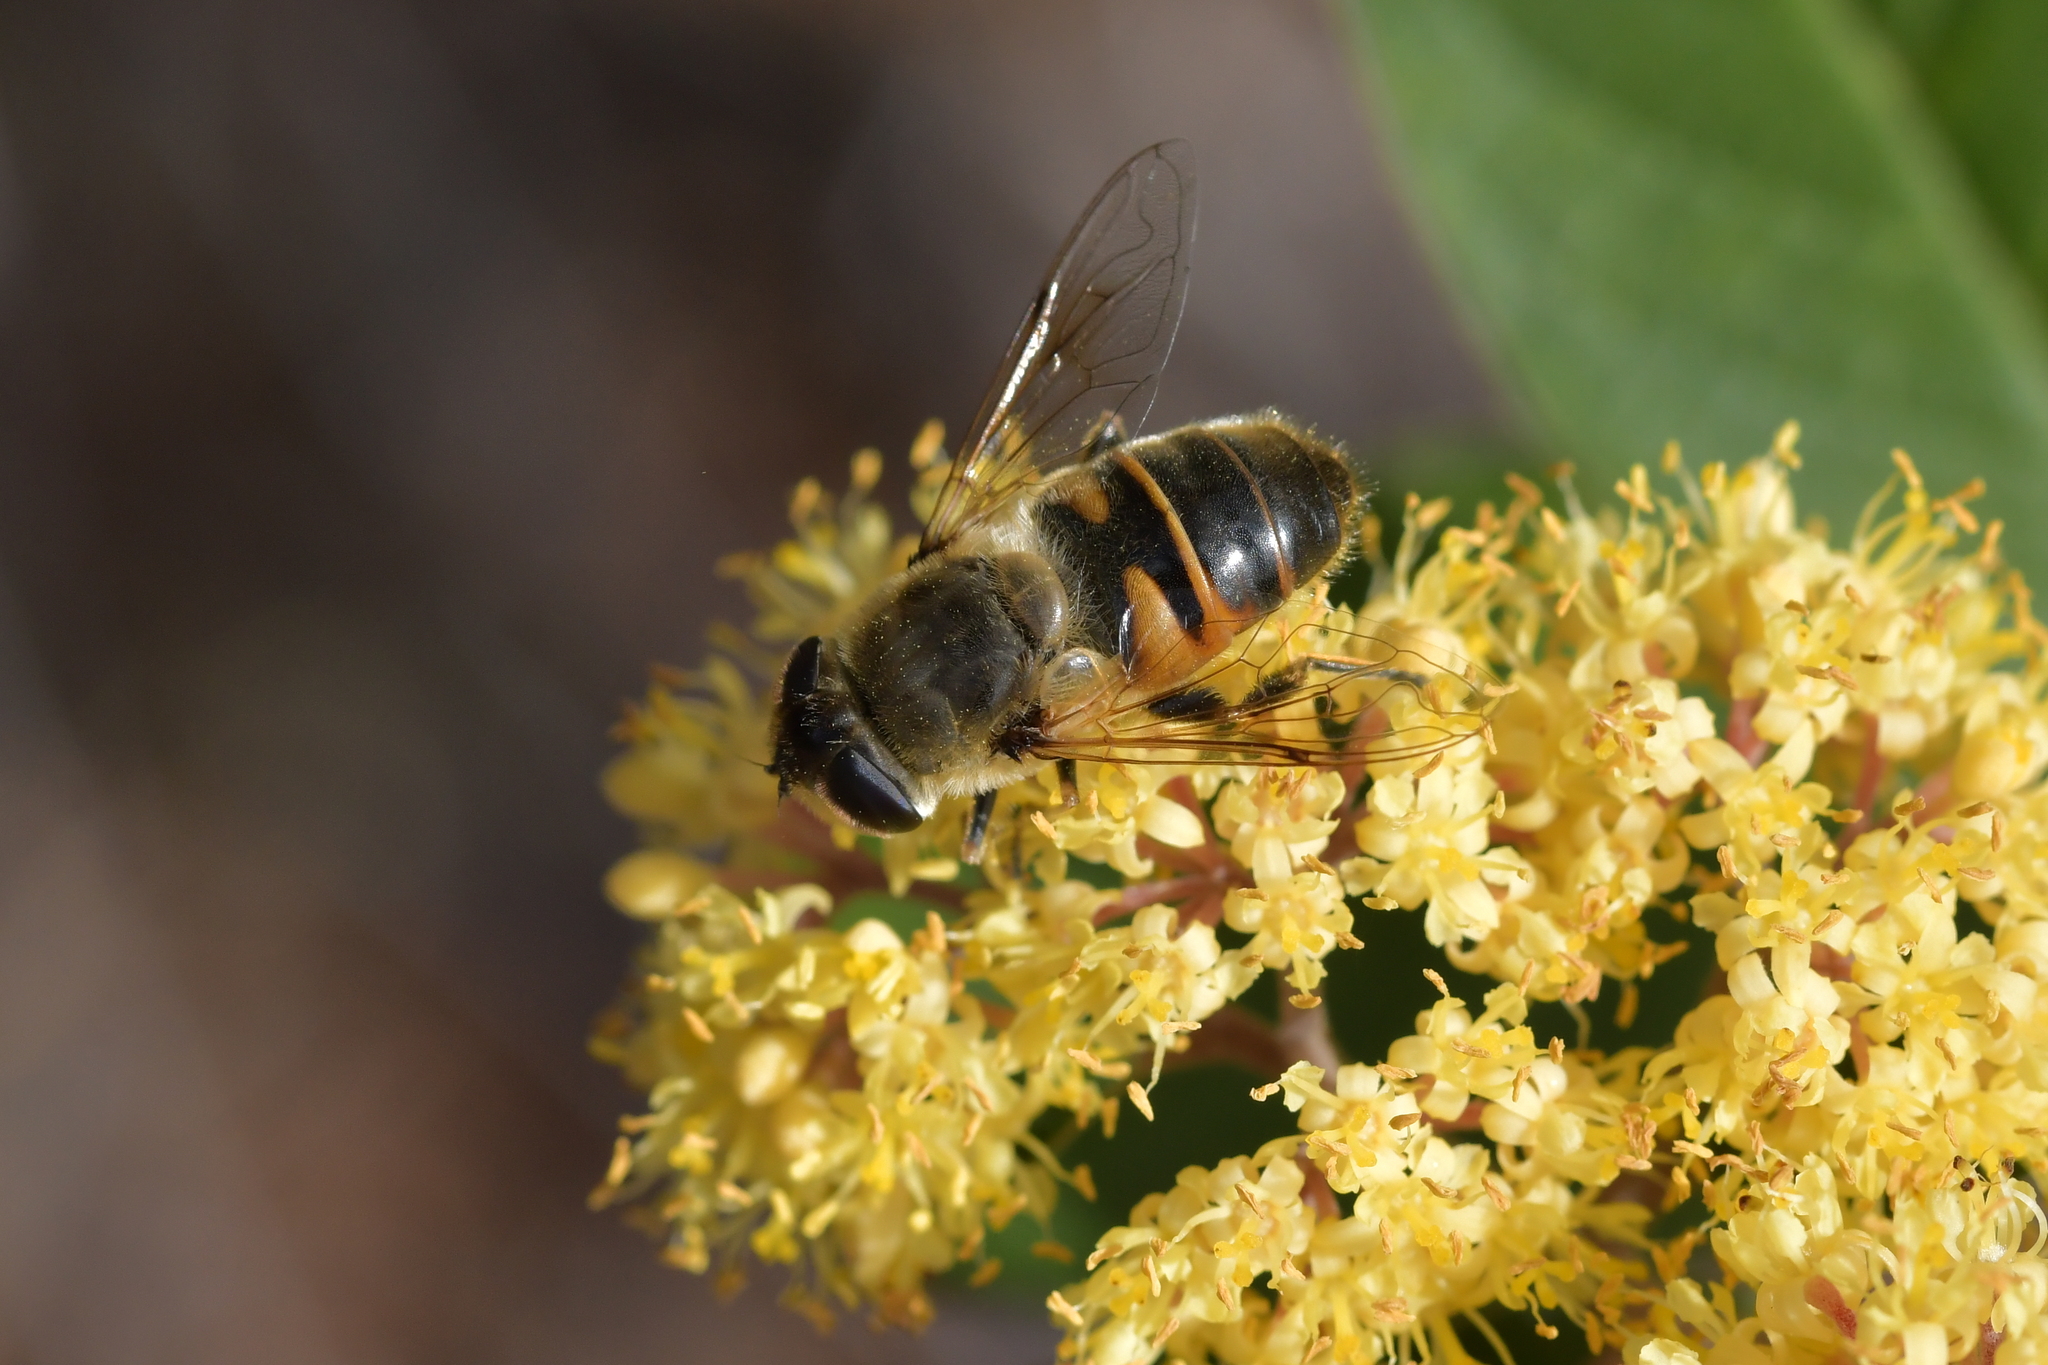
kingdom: Animalia
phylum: Arthropoda
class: Insecta
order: Diptera
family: Syrphidae
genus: Eristalis
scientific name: Eristalis tenax
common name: Drone fly
